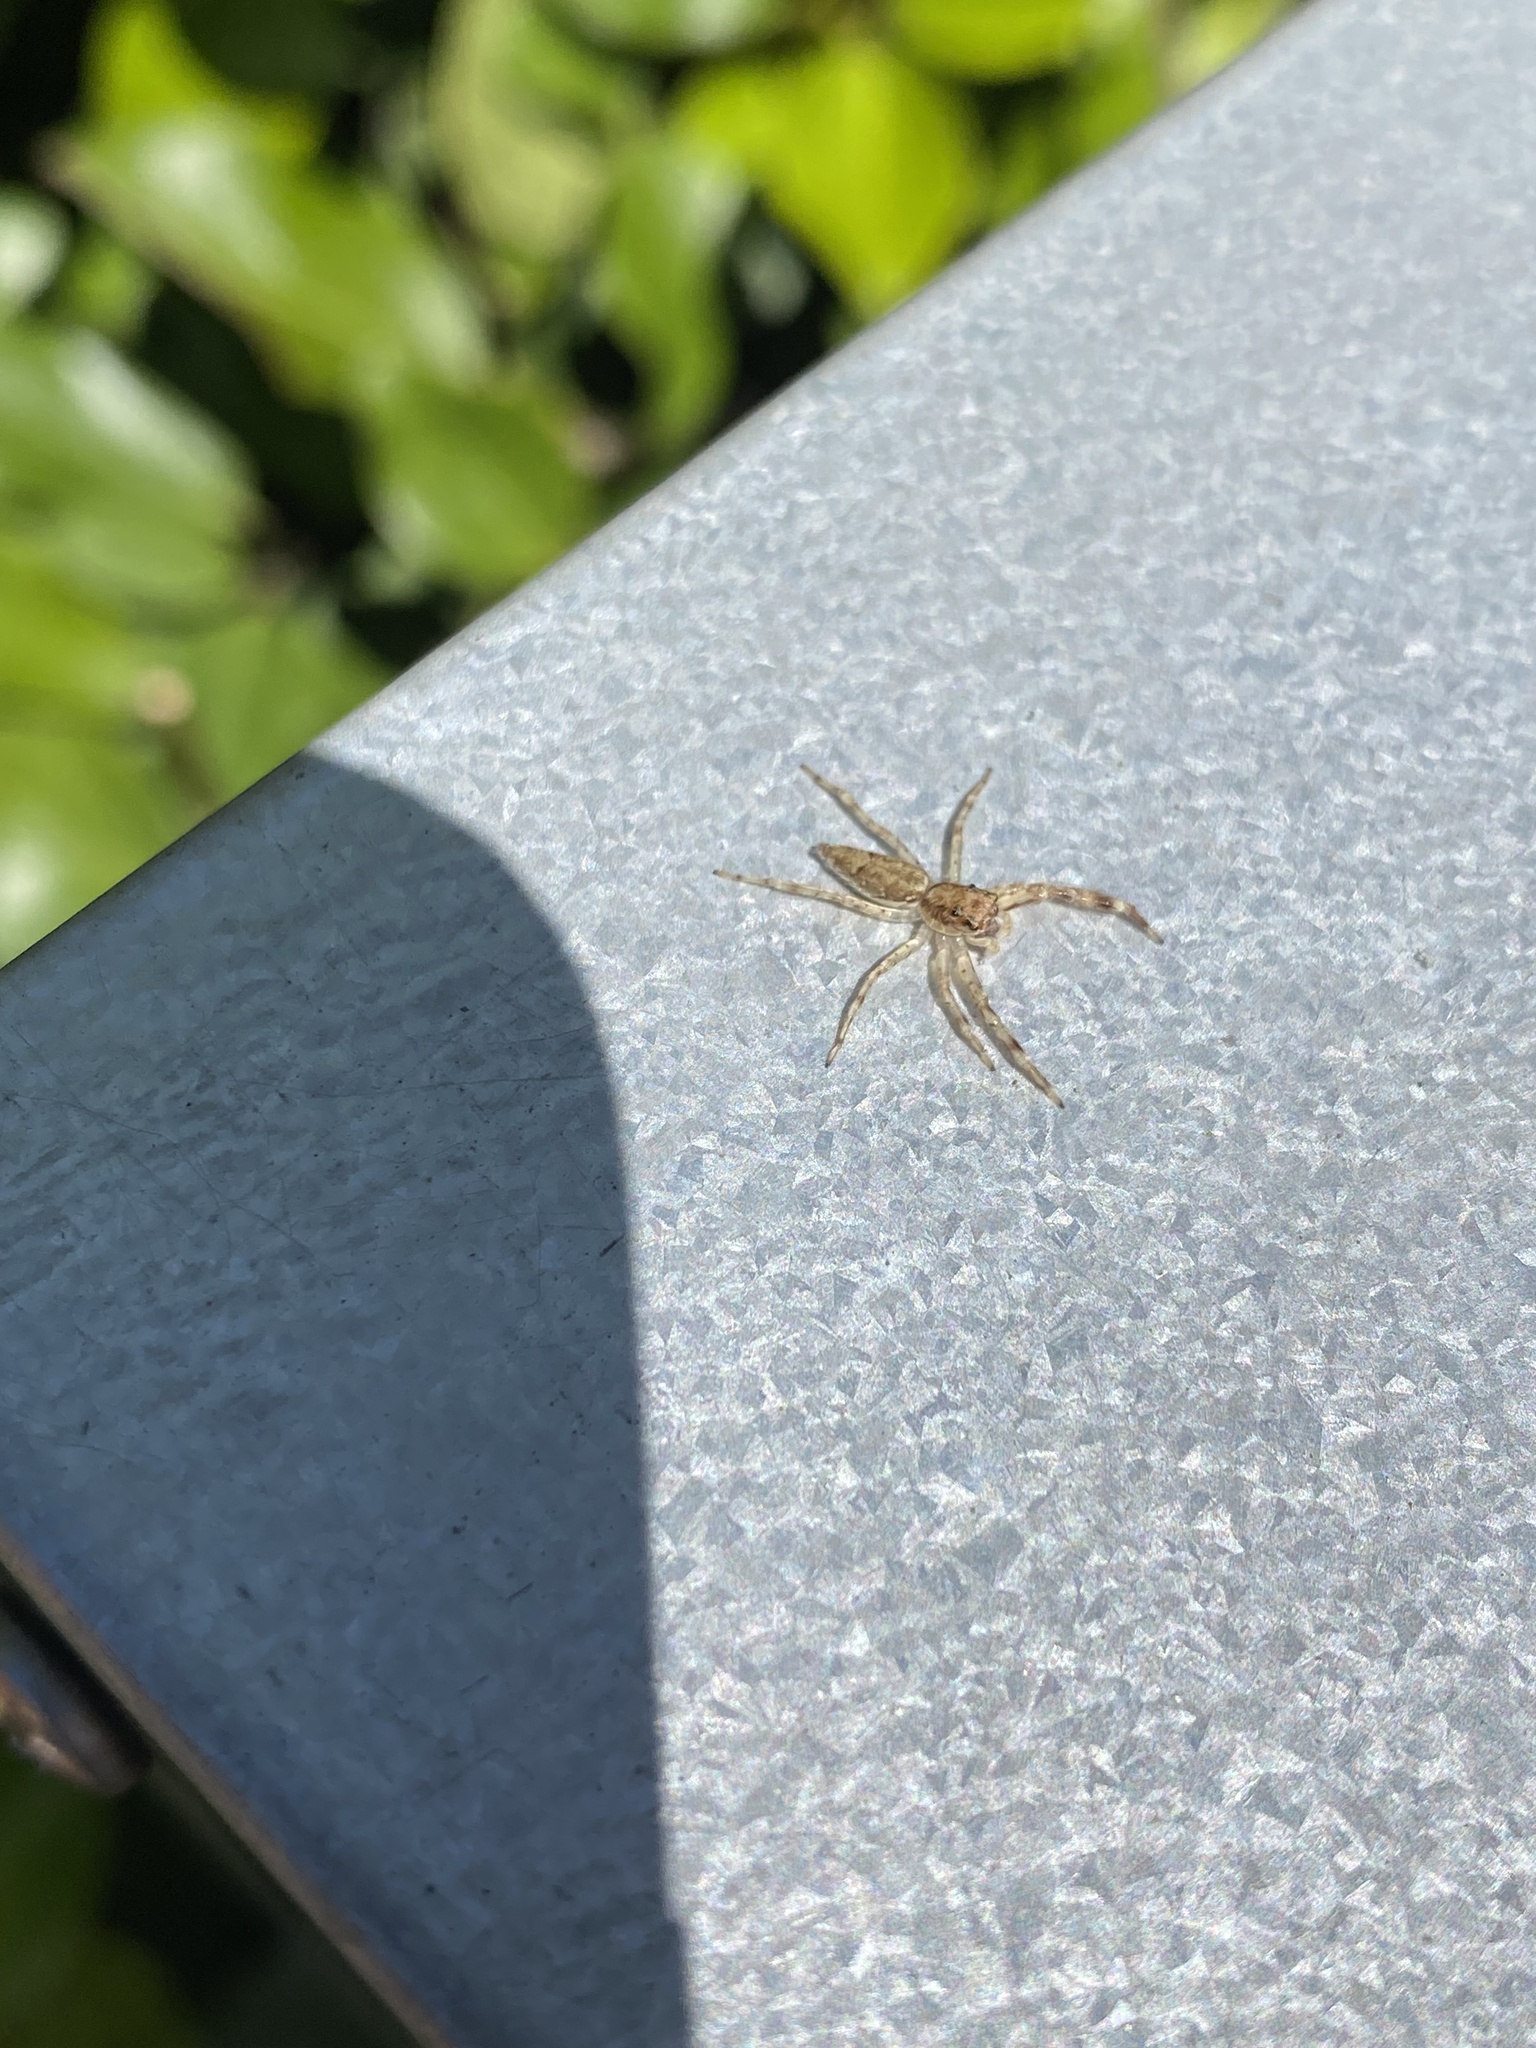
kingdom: Animalia
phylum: Arthropoda
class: Arachnida
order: Araneae
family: Salticidae
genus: Helpis
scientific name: Helpis minitabunda
